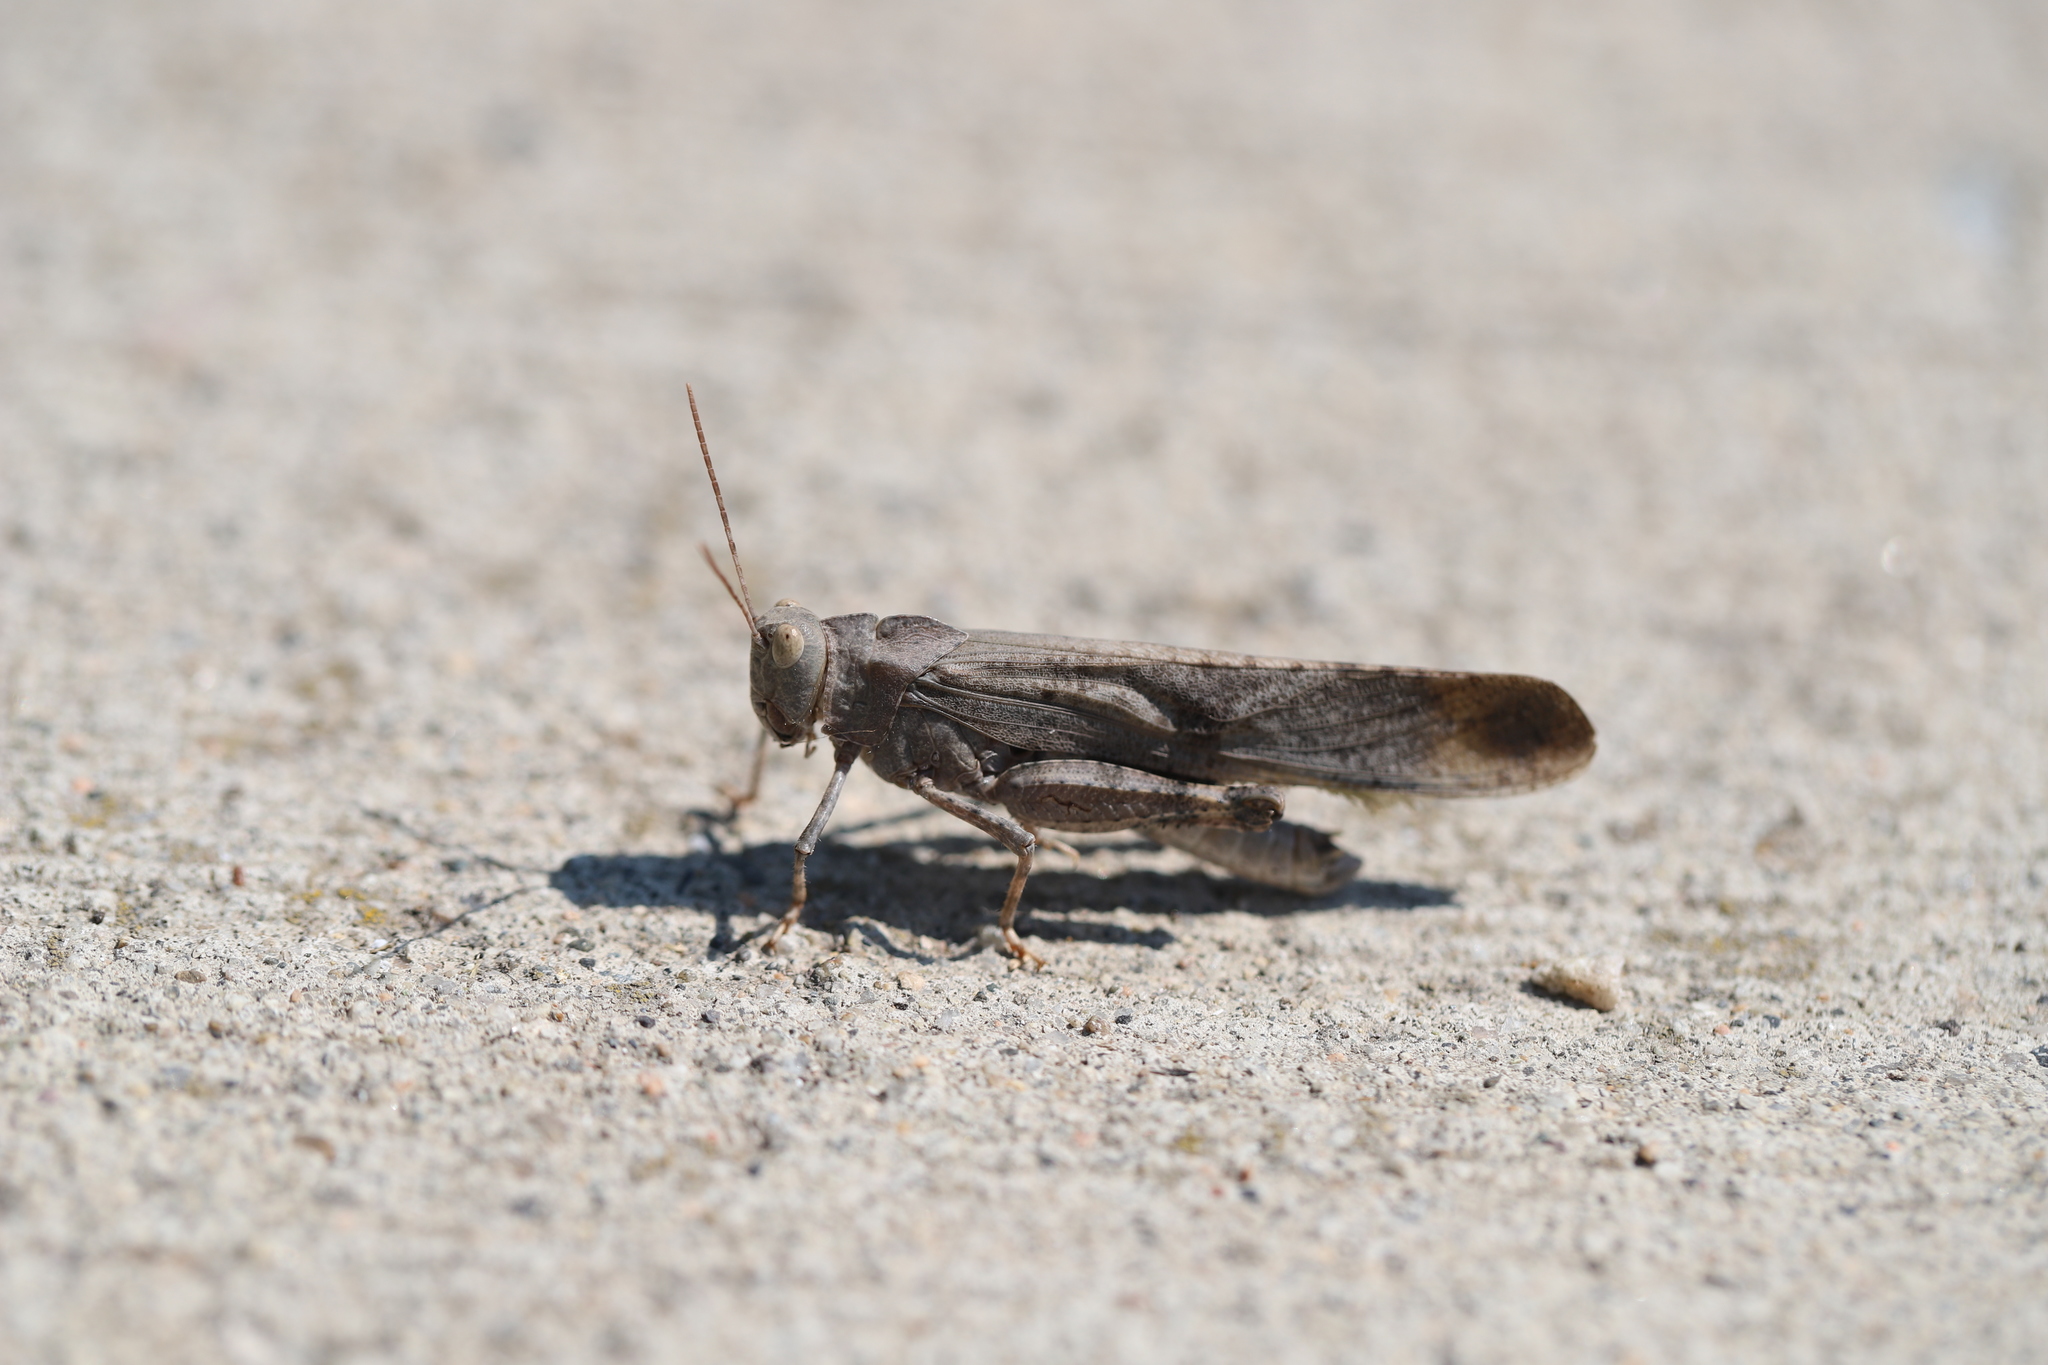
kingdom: Animalia
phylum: Arthropoda
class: Insecta
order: Orthoptera
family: Acrididae
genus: Dissosteira
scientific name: Dissosteira carolina
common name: Carolina grasshopper
